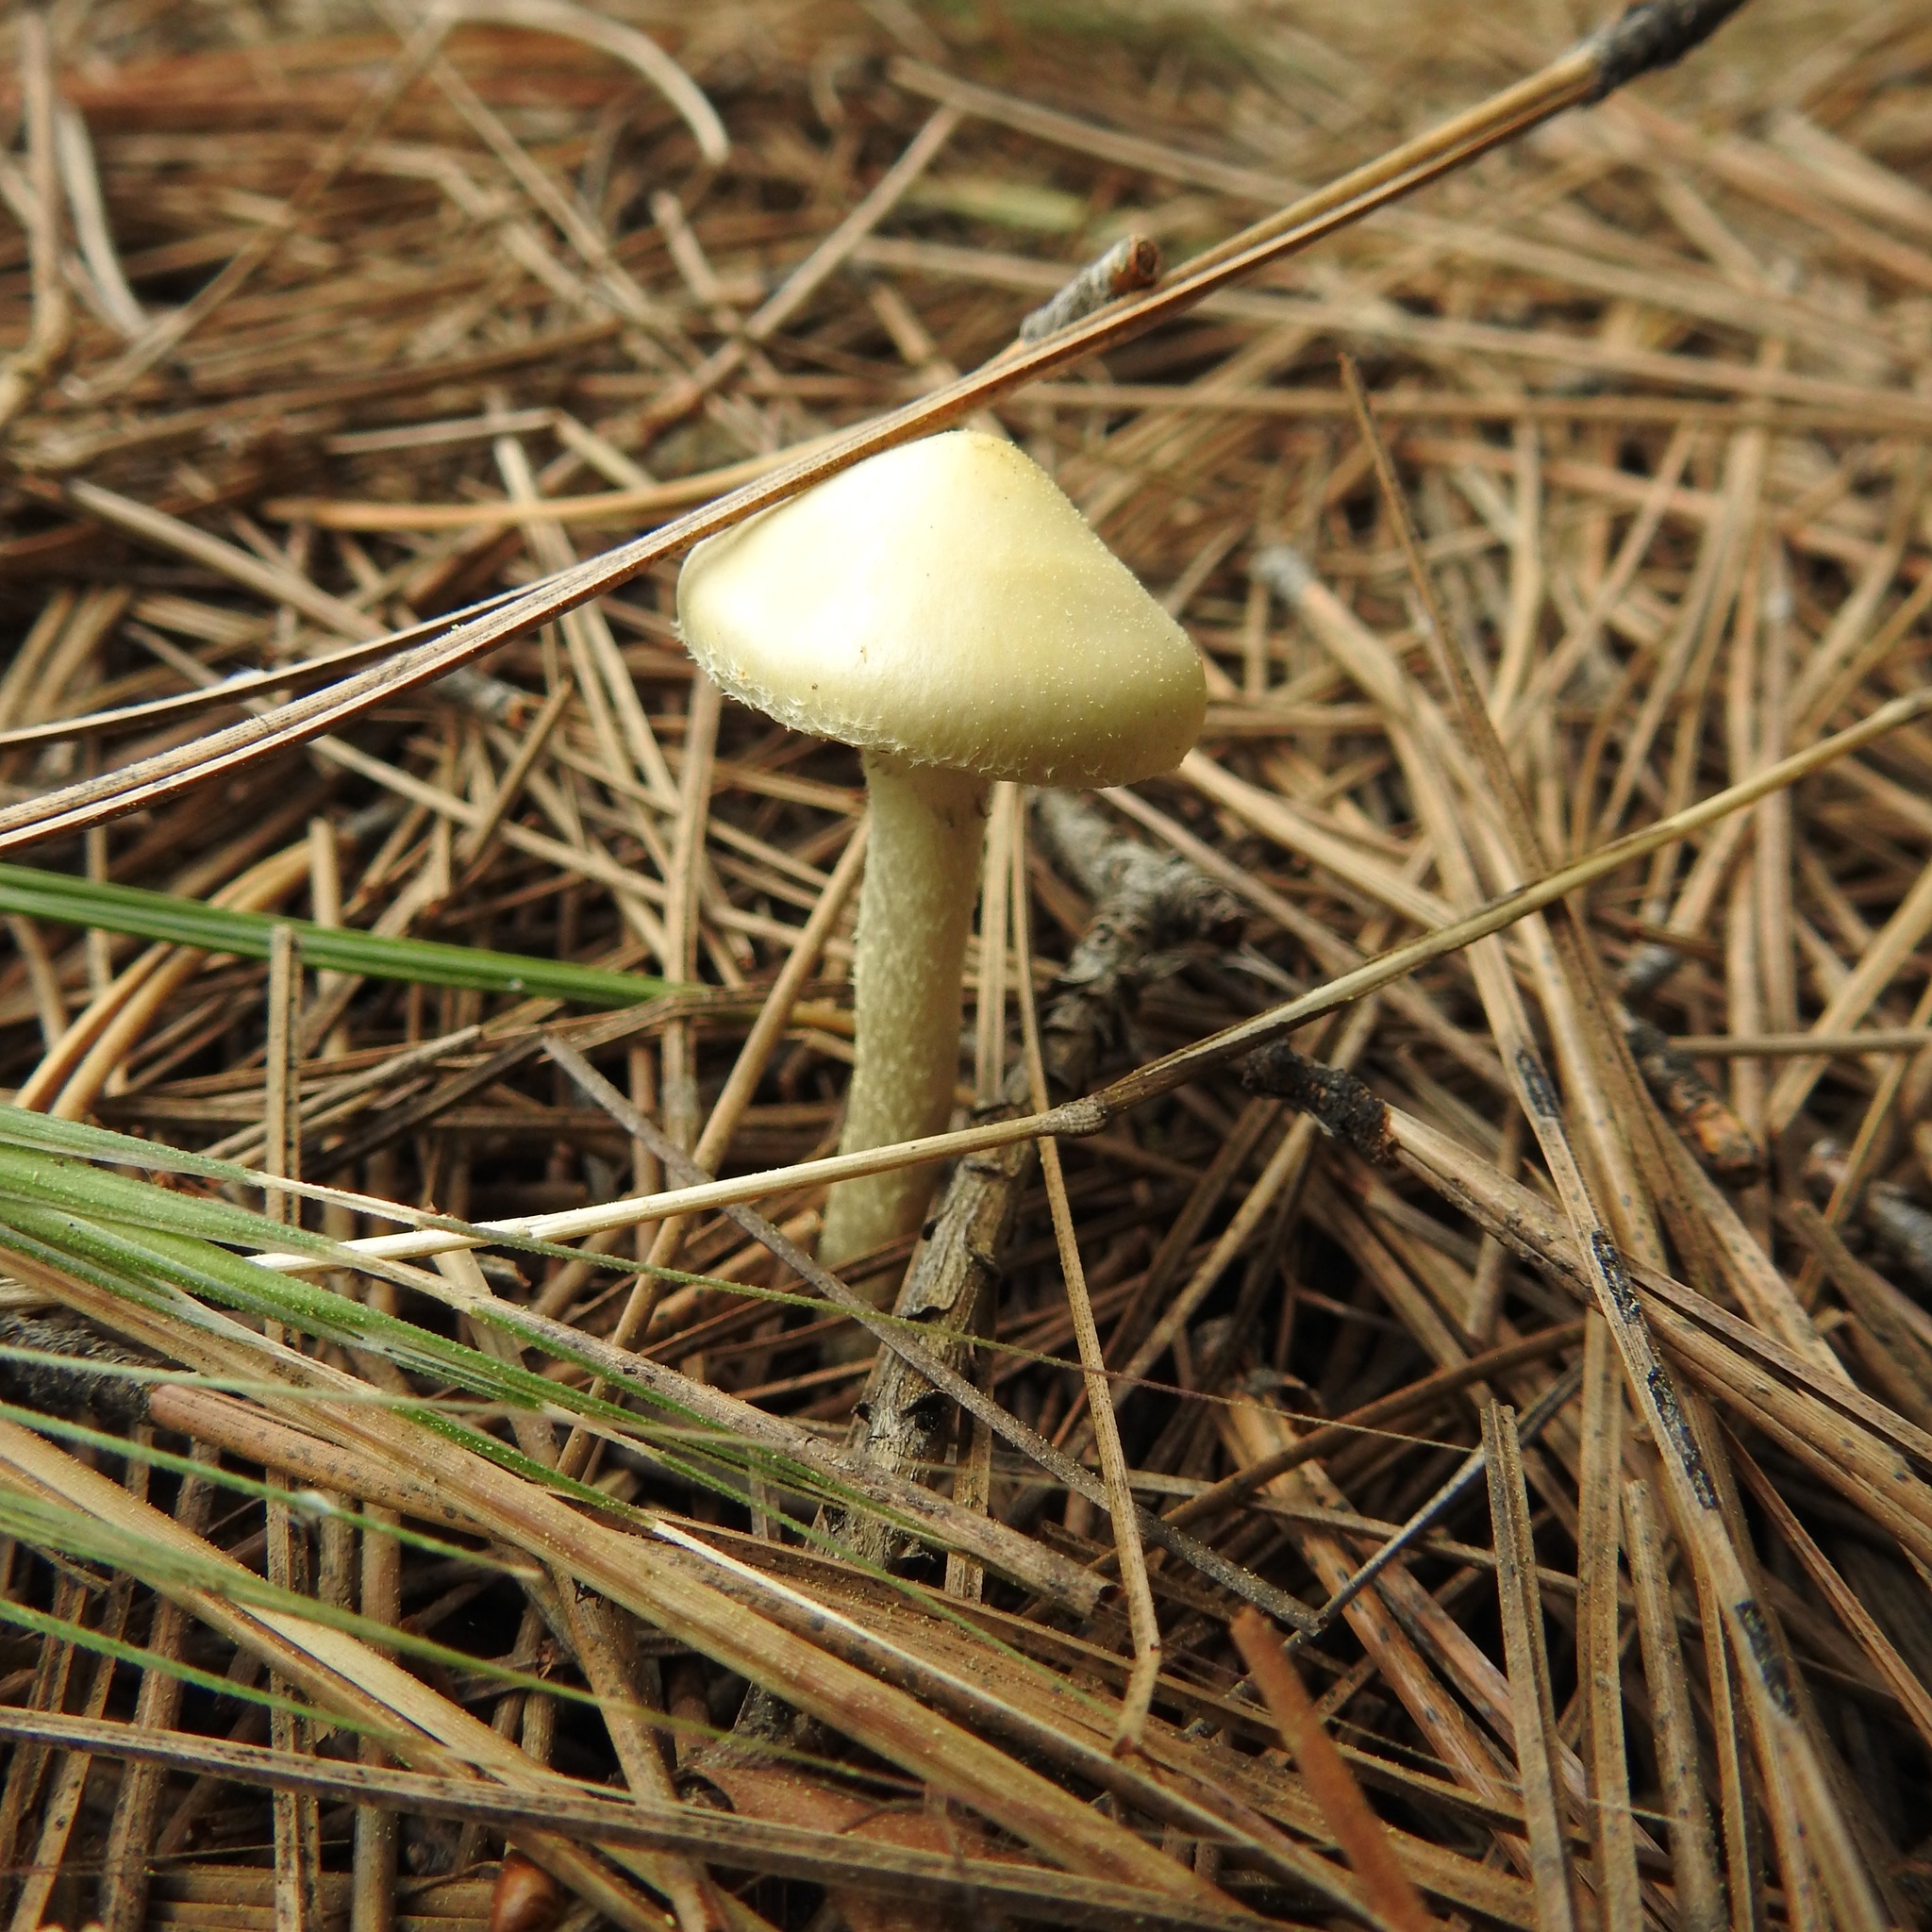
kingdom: Fungi
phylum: Basidiomycota
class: Agaricomycetes
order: Agaricales
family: Strophariaceae
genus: Leratiomyces
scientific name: Leratiomyces percevalii
